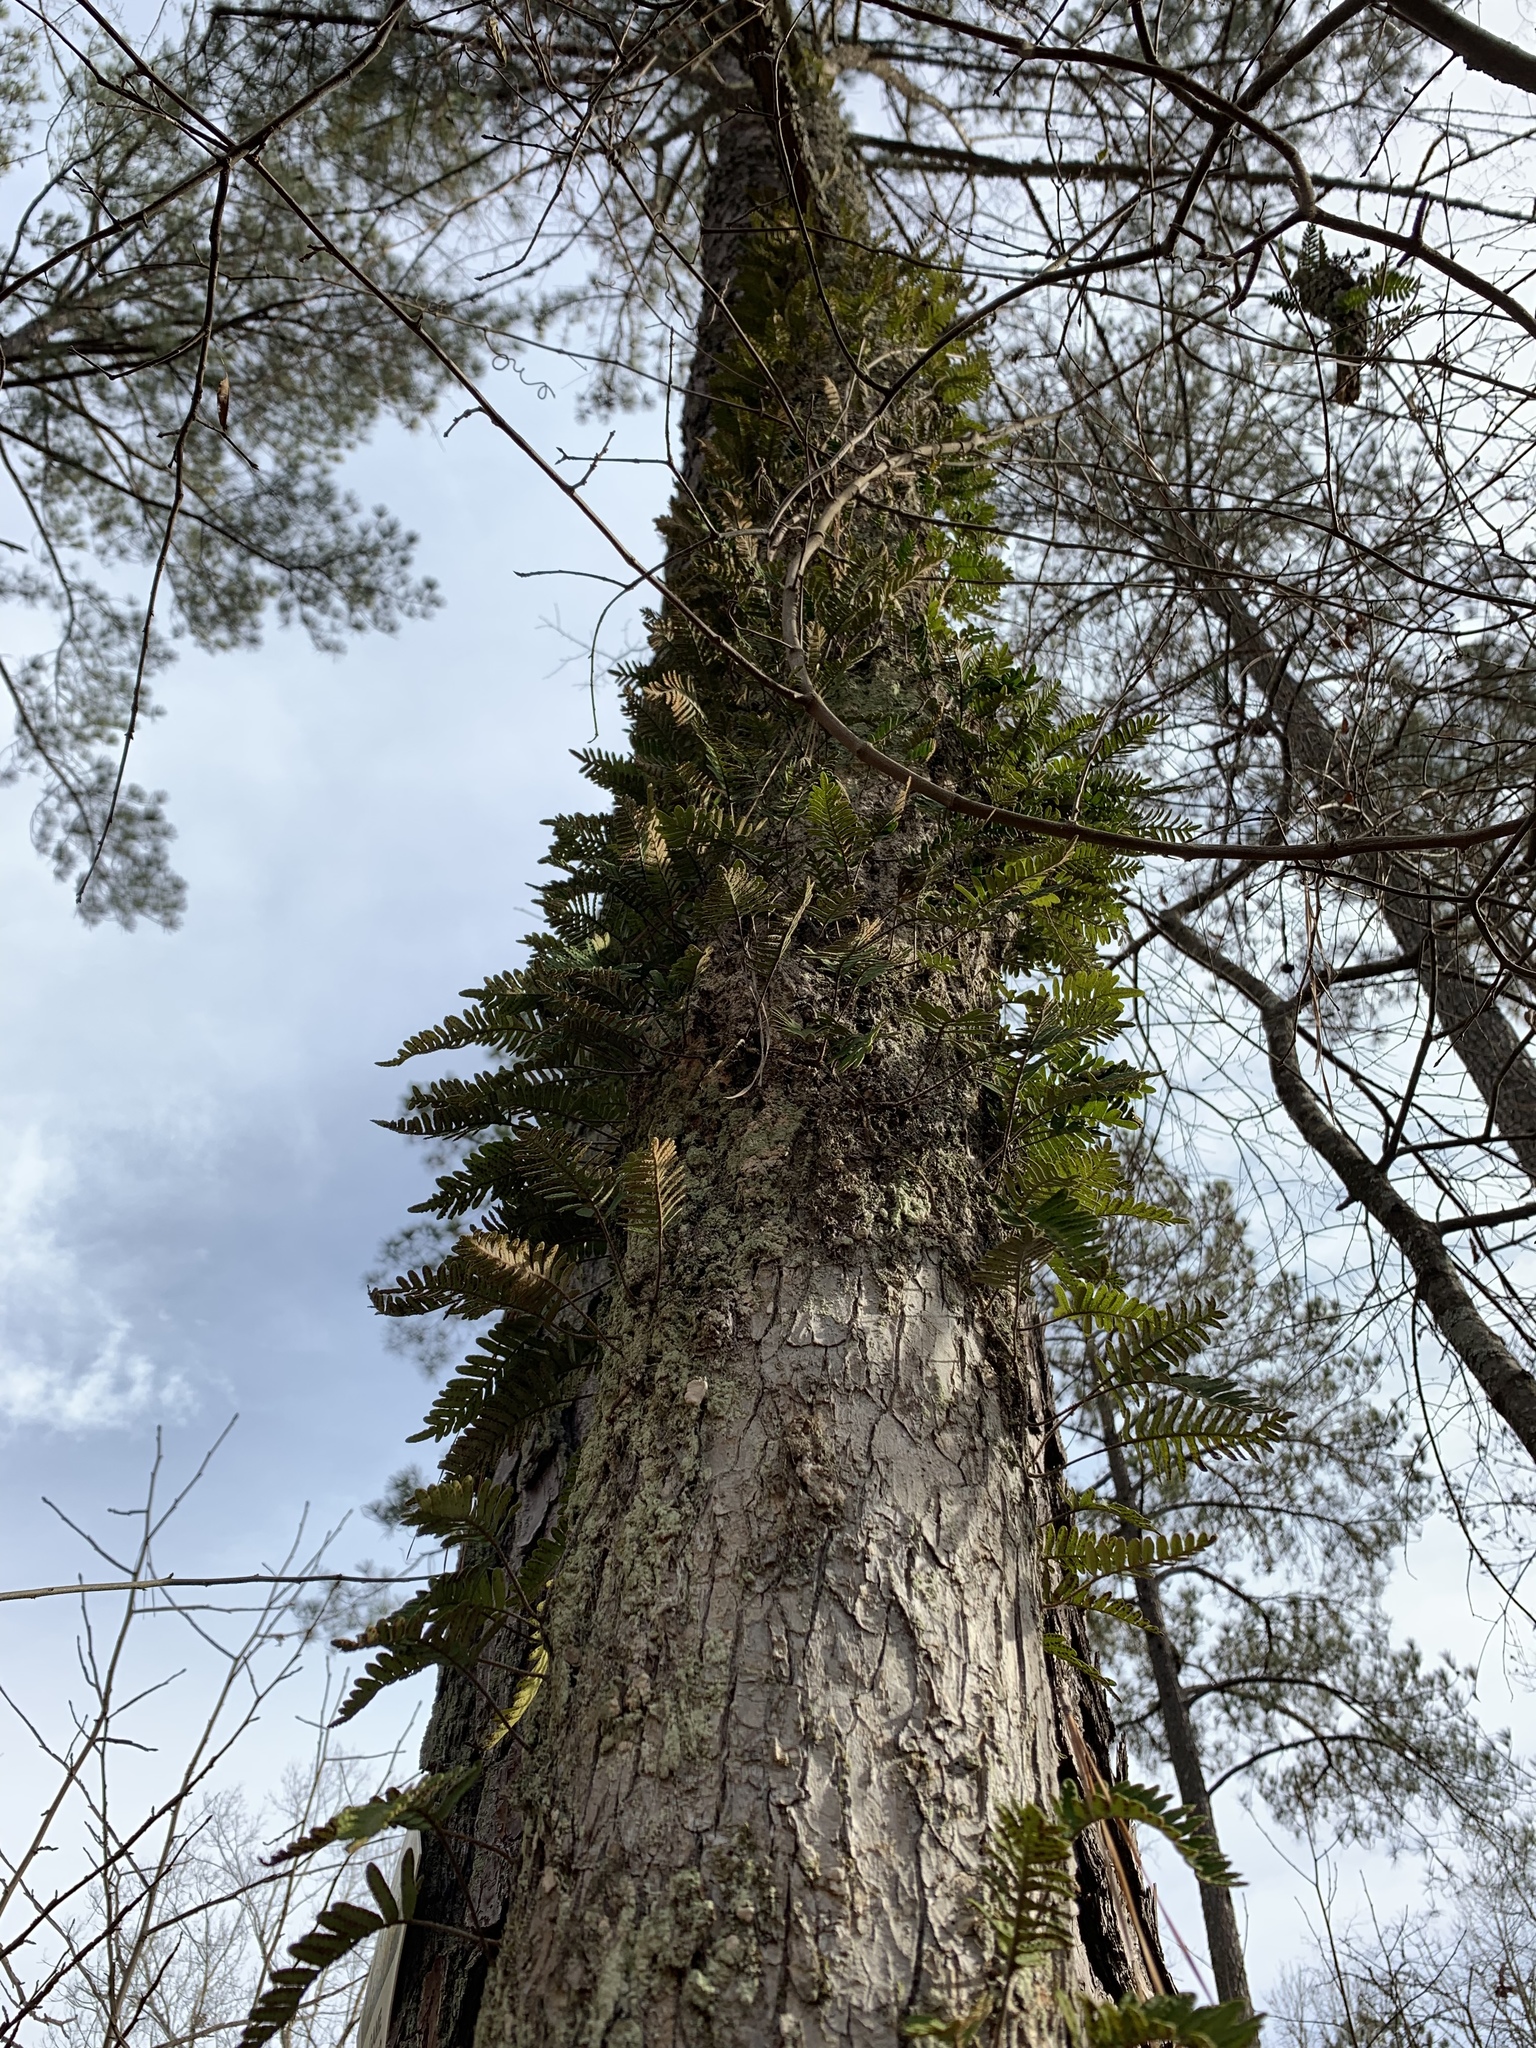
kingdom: Plantae
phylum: Tracheophyta
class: Polypodiopsida
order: Polypodiales
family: Polypodiaceae
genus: Pleopeltis
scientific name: Pleopeltis michauxiana
